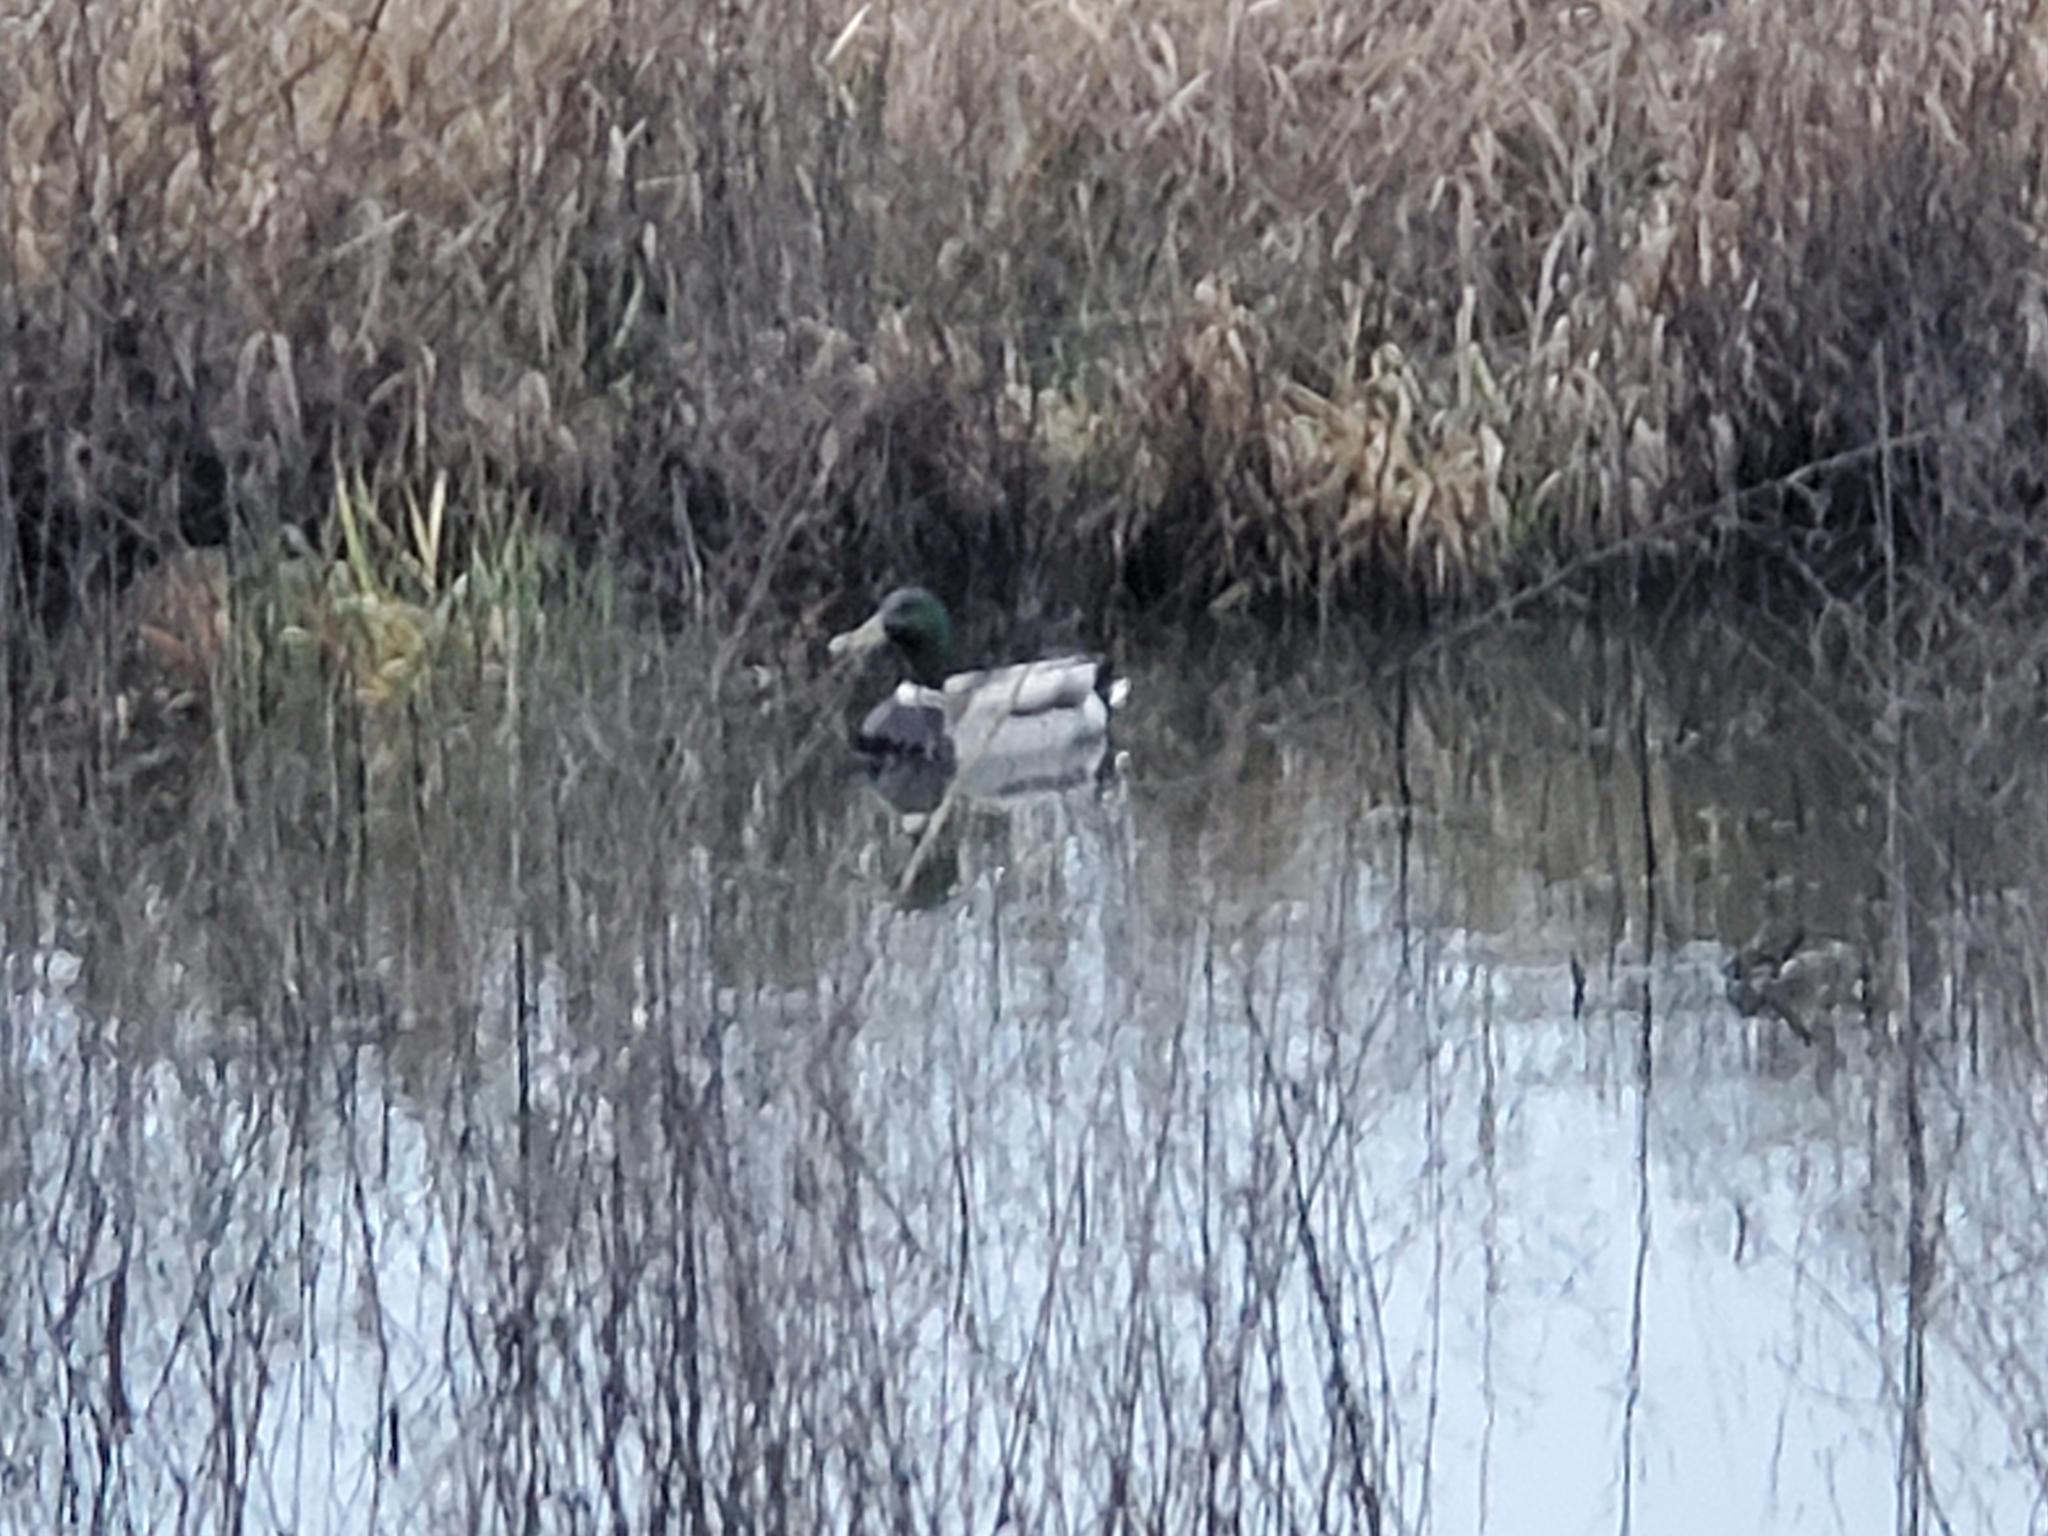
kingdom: Animalia
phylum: Chordata
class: Aves
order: Anseriformes
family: Anatidae
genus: Anas
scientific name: Anas platyrhynchos
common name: Mallard
